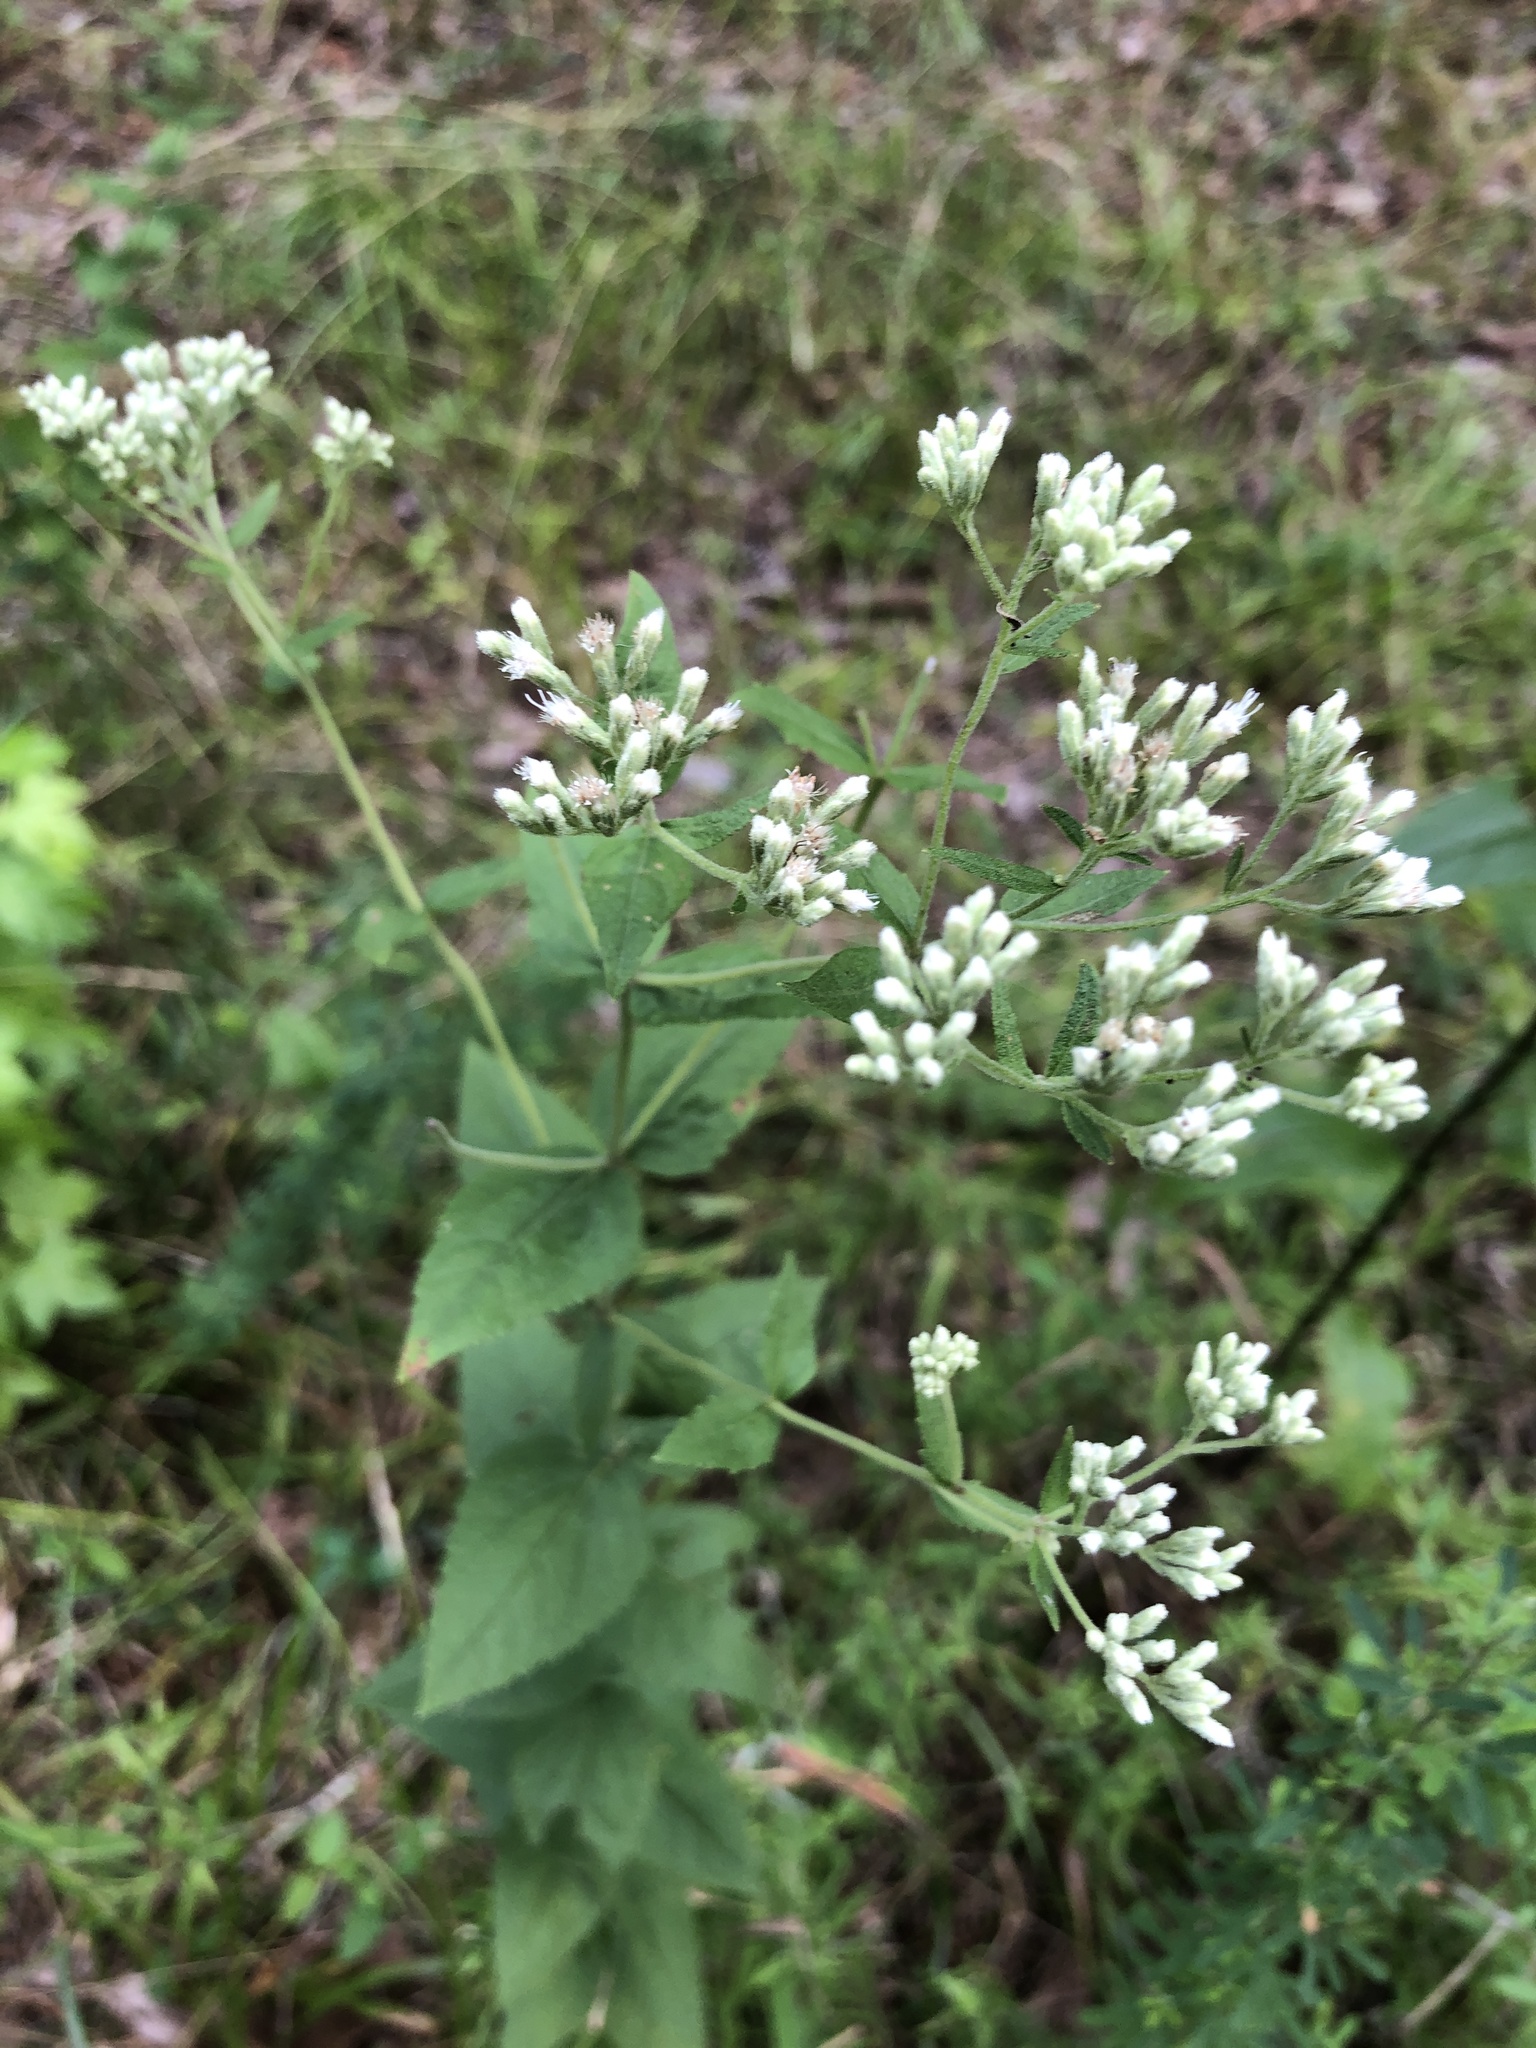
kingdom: Plantae
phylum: Tracheophyta
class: Magnoliopsida
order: Asterales
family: Asteraceae
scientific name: Asteraceae
